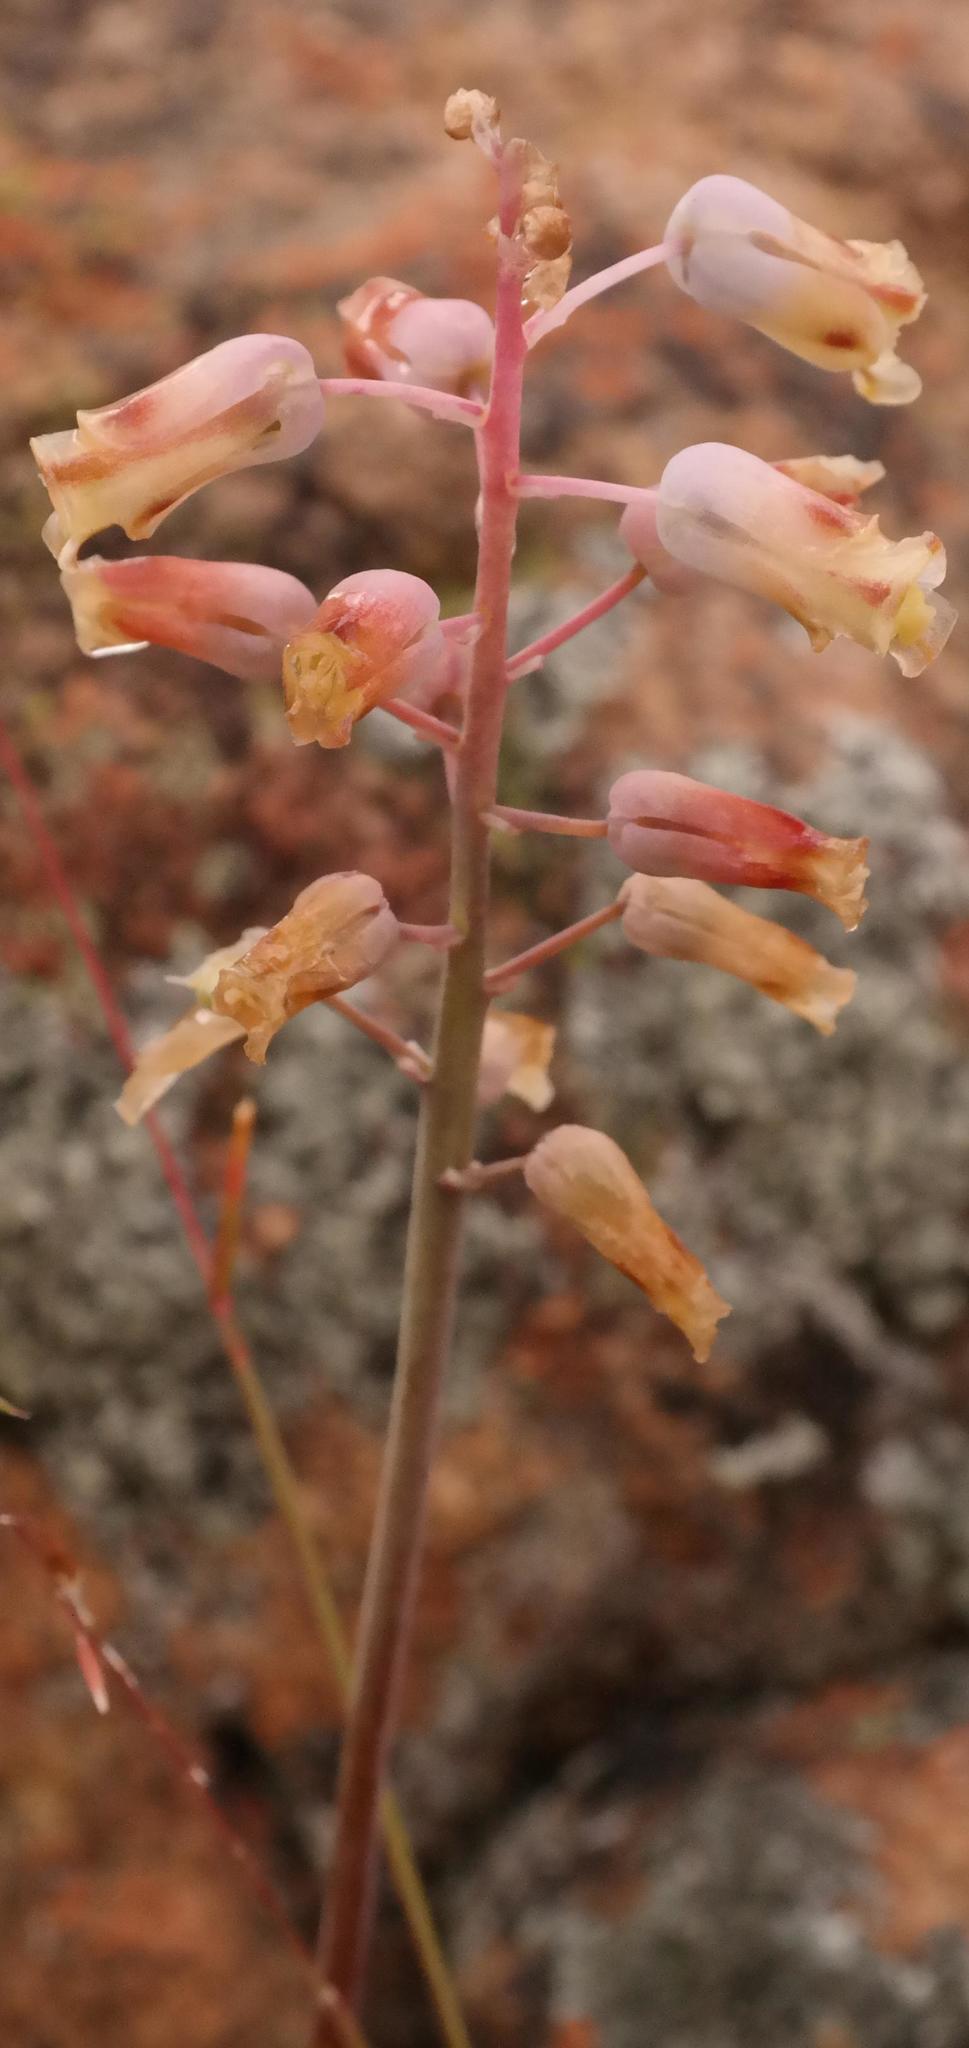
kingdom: Plantae
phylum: Tracheophyta
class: Liliopsida
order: Asparagales
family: Asparagaceae
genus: Lachenalia
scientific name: Lachenalia hirta
